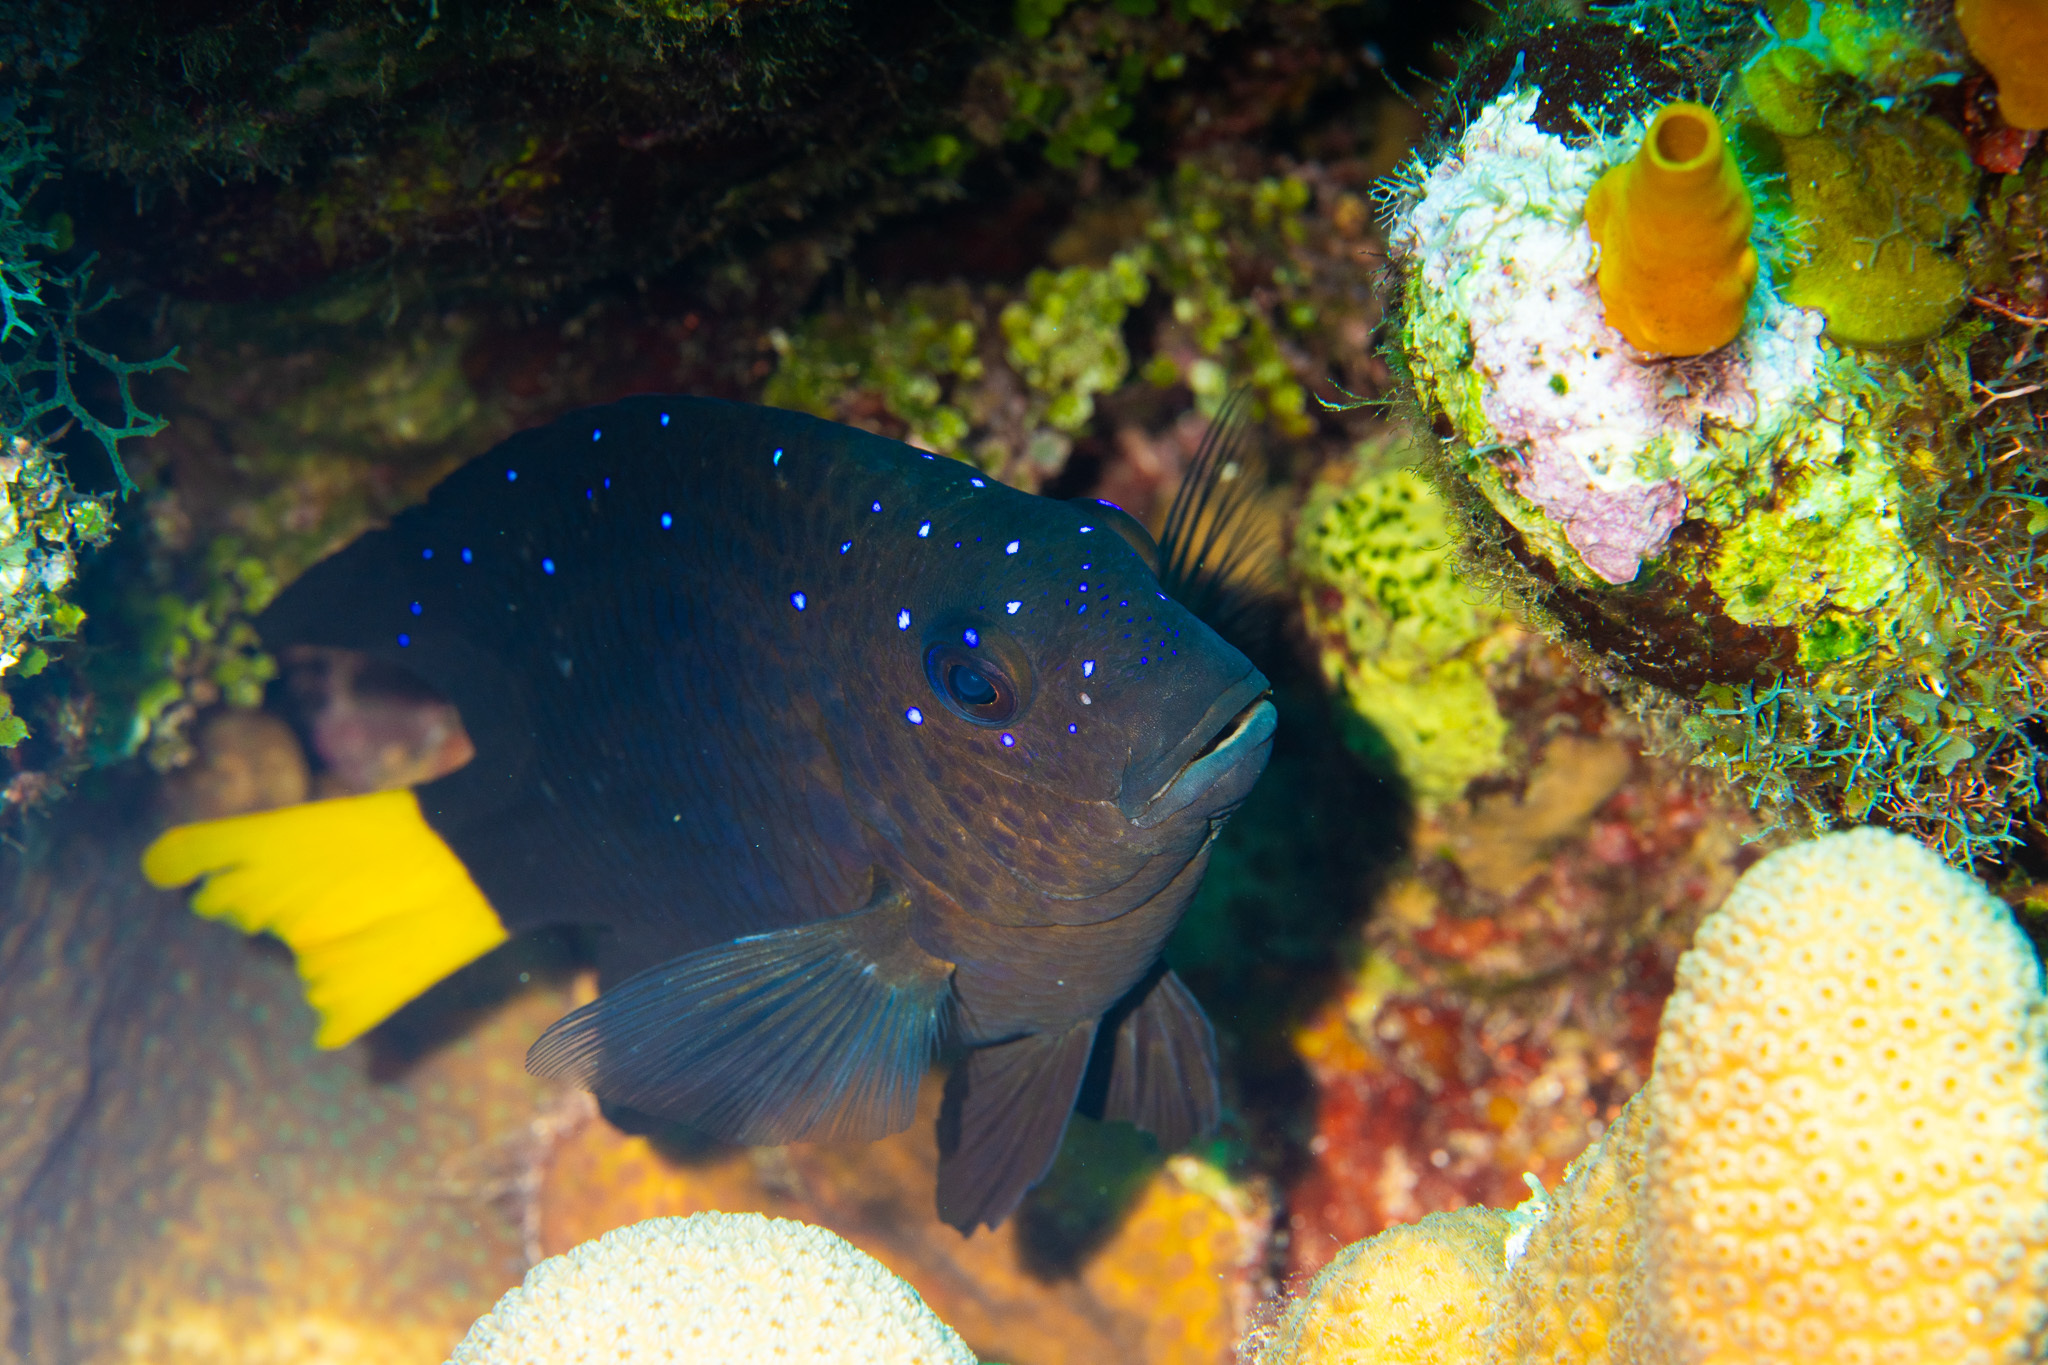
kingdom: Animalia
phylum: Chordata
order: Perciformes
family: Pomacentridae
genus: Microspathodon
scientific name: Microspathodon chrysurus
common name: Yellowtail damselfish
